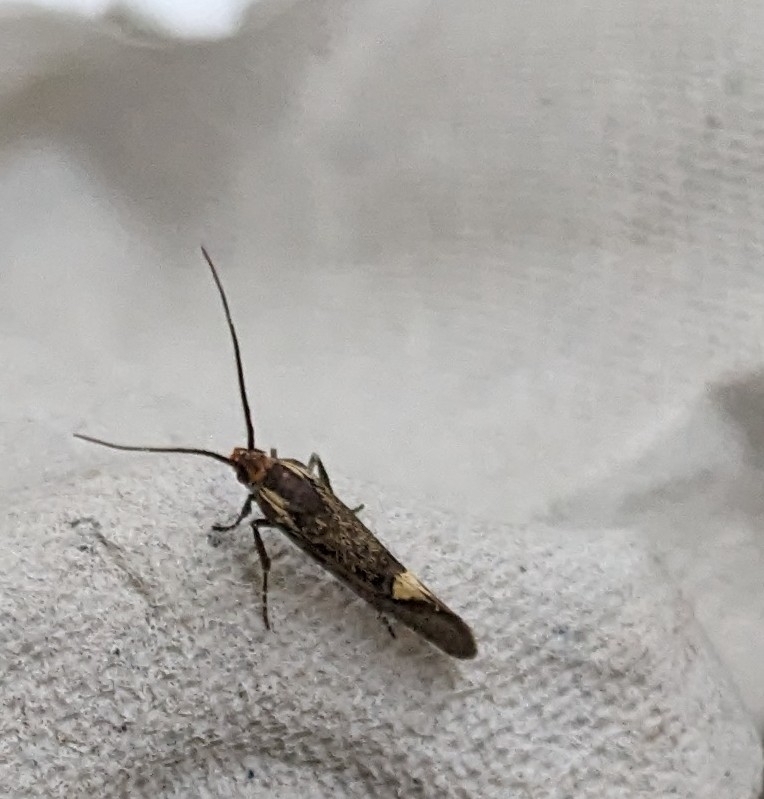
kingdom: Animalia
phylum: Arthropoda
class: Insecta
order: Lepidoptera
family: Oecophoridae
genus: Dafa
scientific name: Dafa Esperia sulphurella
